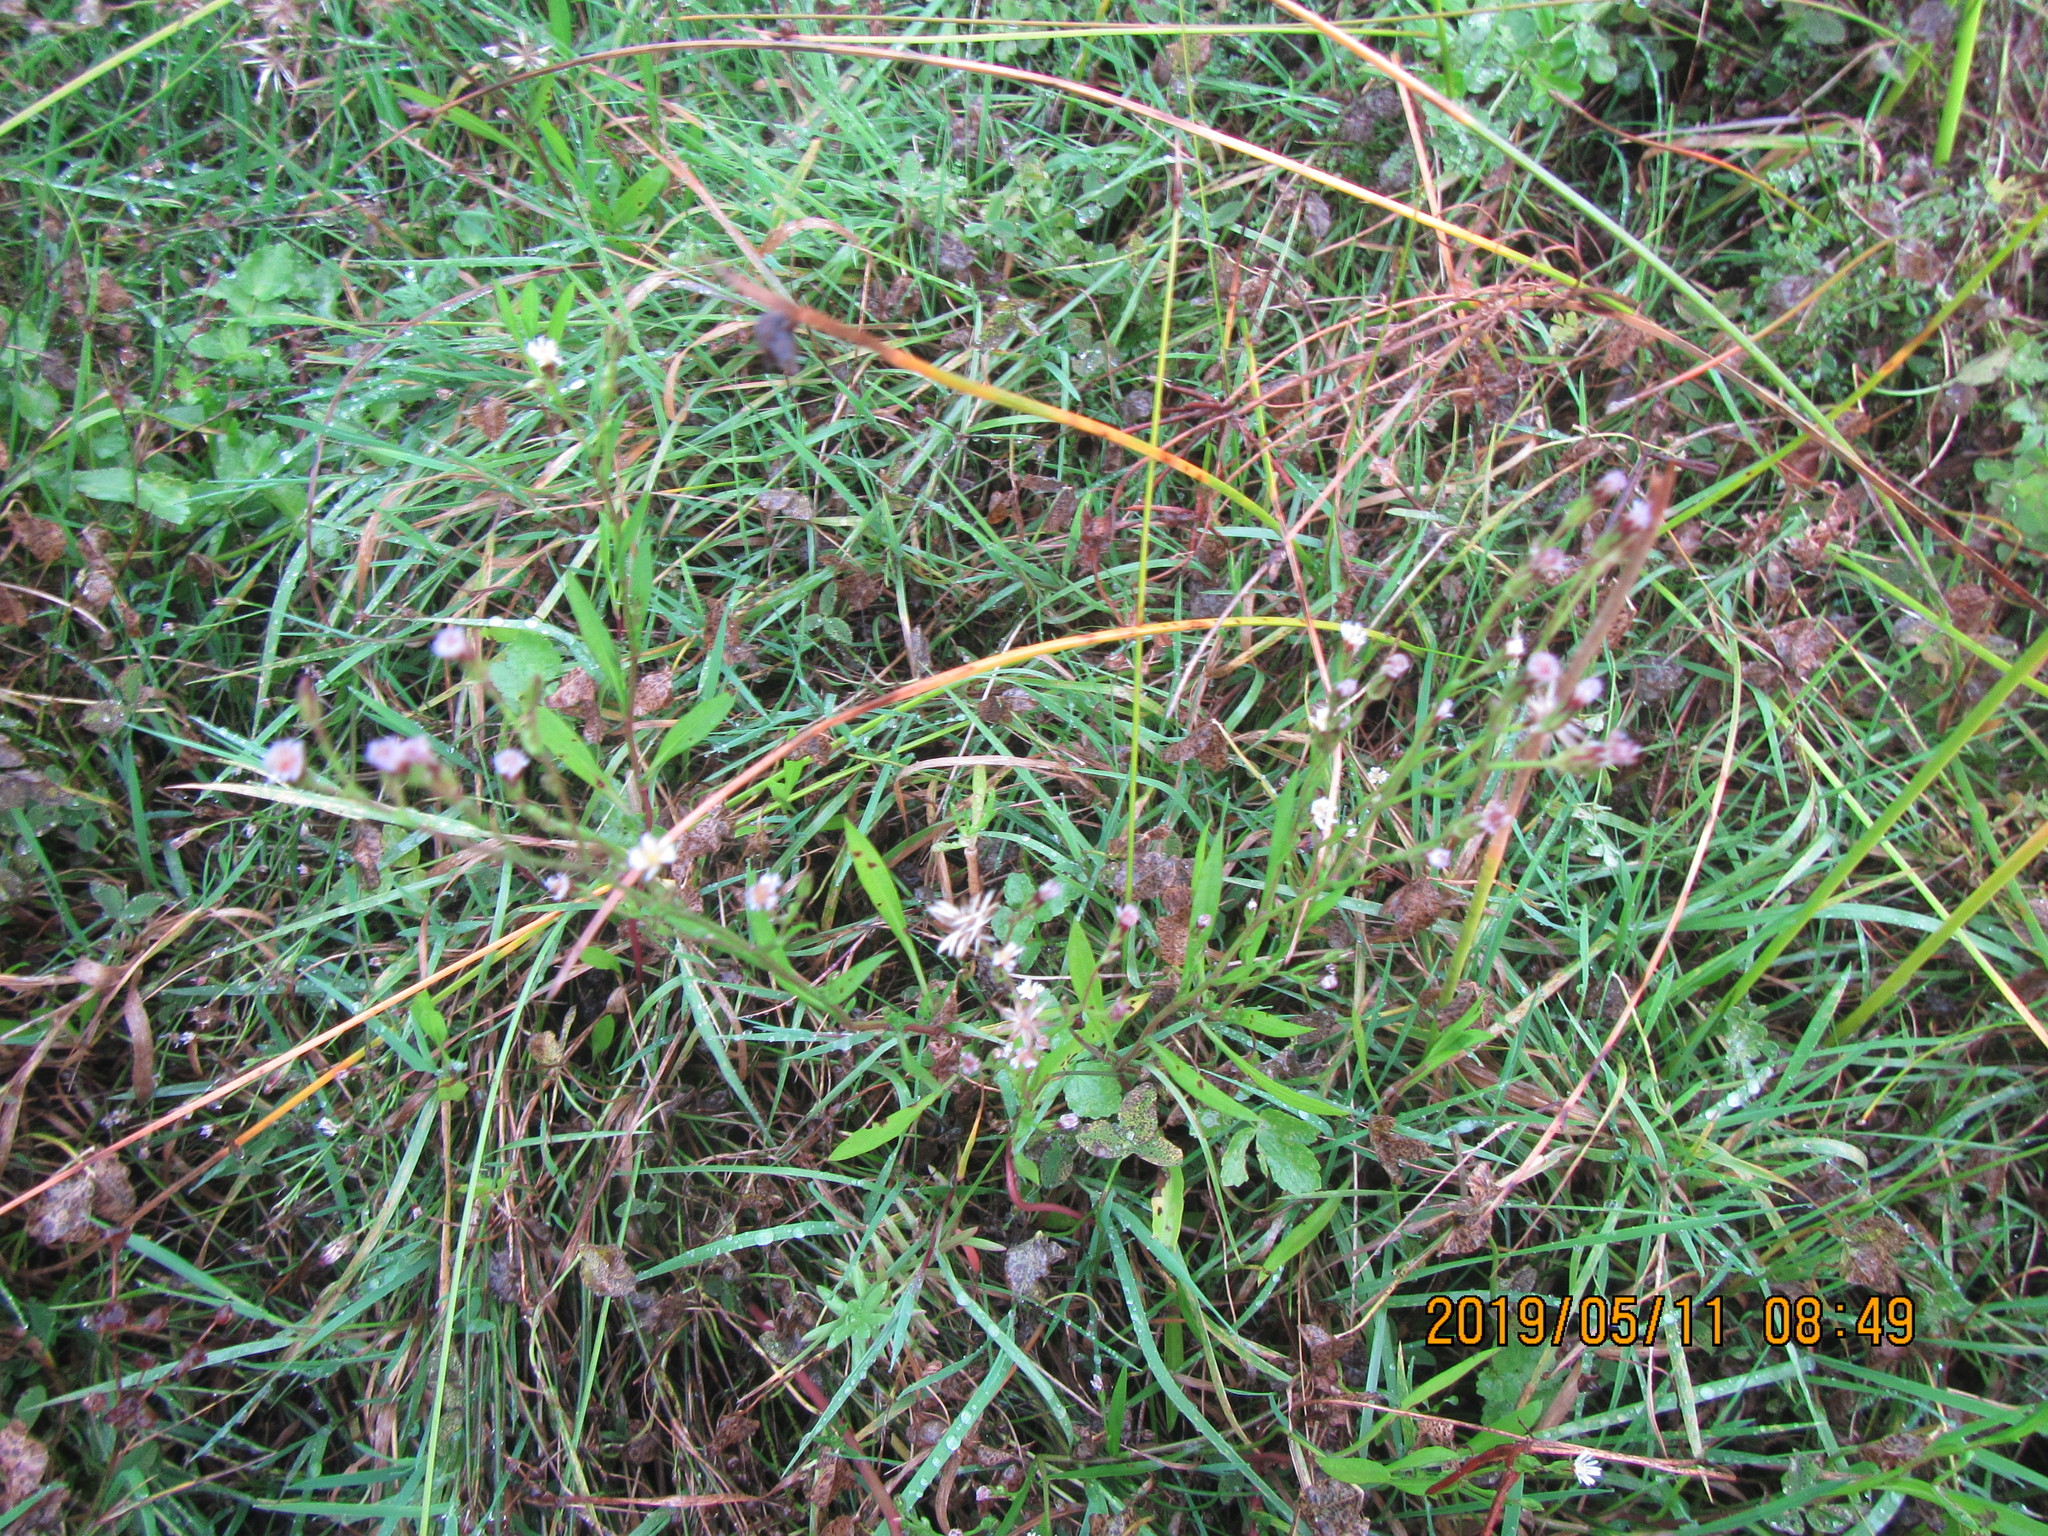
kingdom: Plantae
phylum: Tracheophyta
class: Magnoliopsida
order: Asterales
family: Asteraceae
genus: Symphyotrichum
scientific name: Symphyotrichum subulatum
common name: Annual saltmarsh aster
